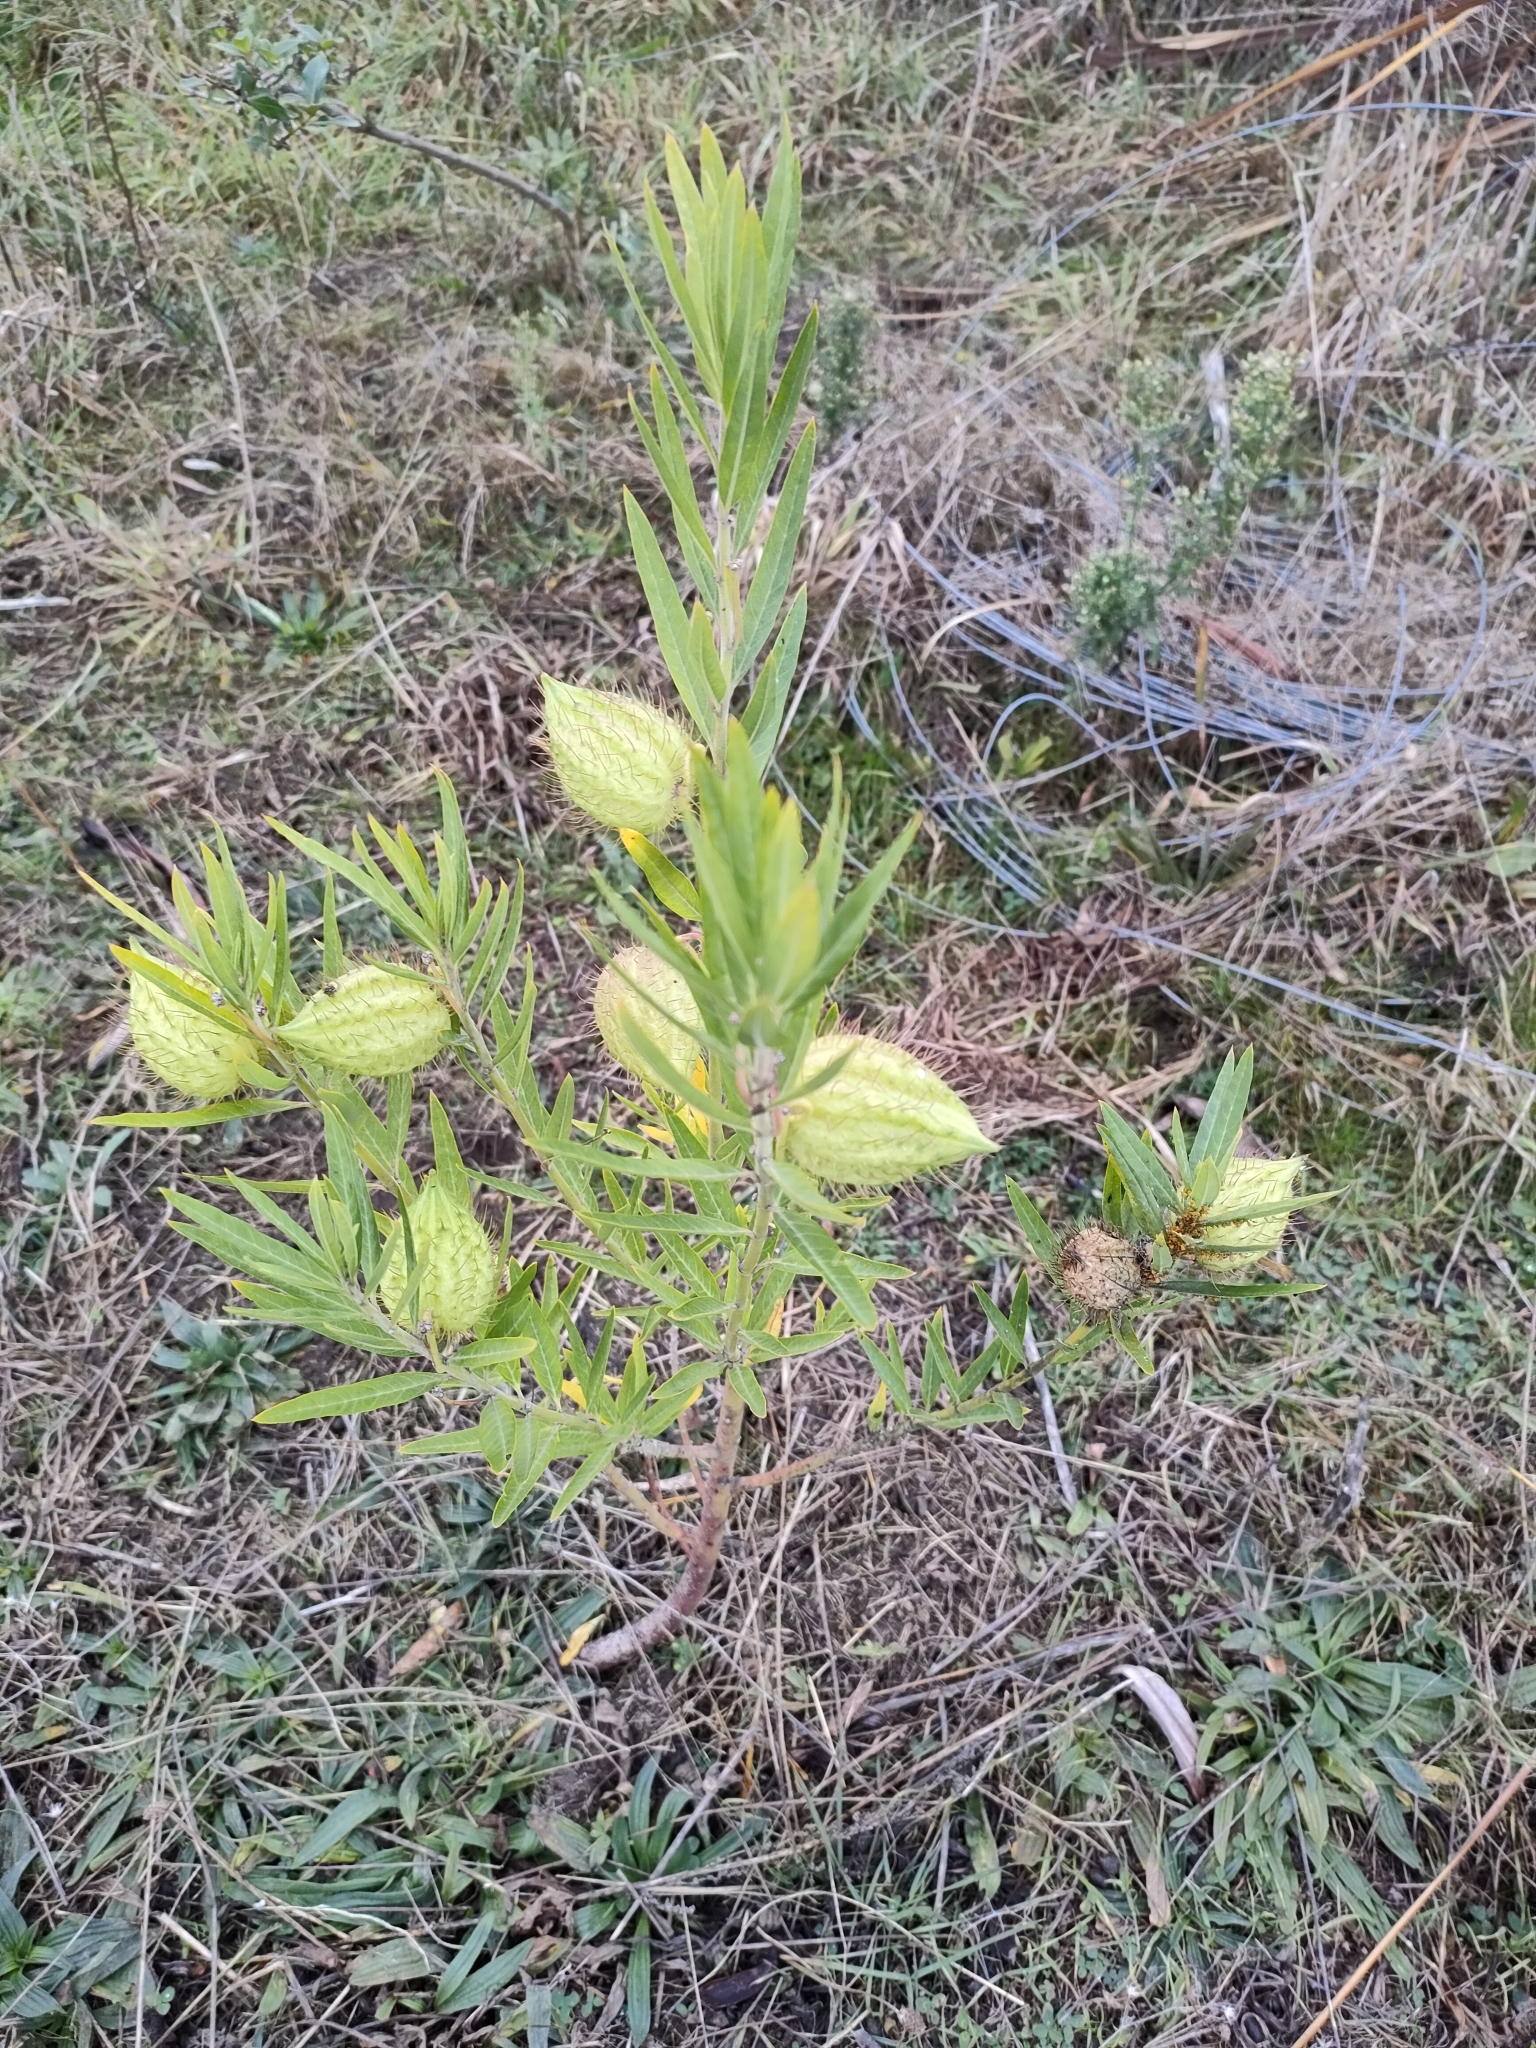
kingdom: Plantae
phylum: Tracheophyta
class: Magnoliopsida
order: Gentianales
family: Apocynaceae
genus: Gomphocarpus
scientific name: Gomphocarpus physocarpus
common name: Balloon cotton bush
